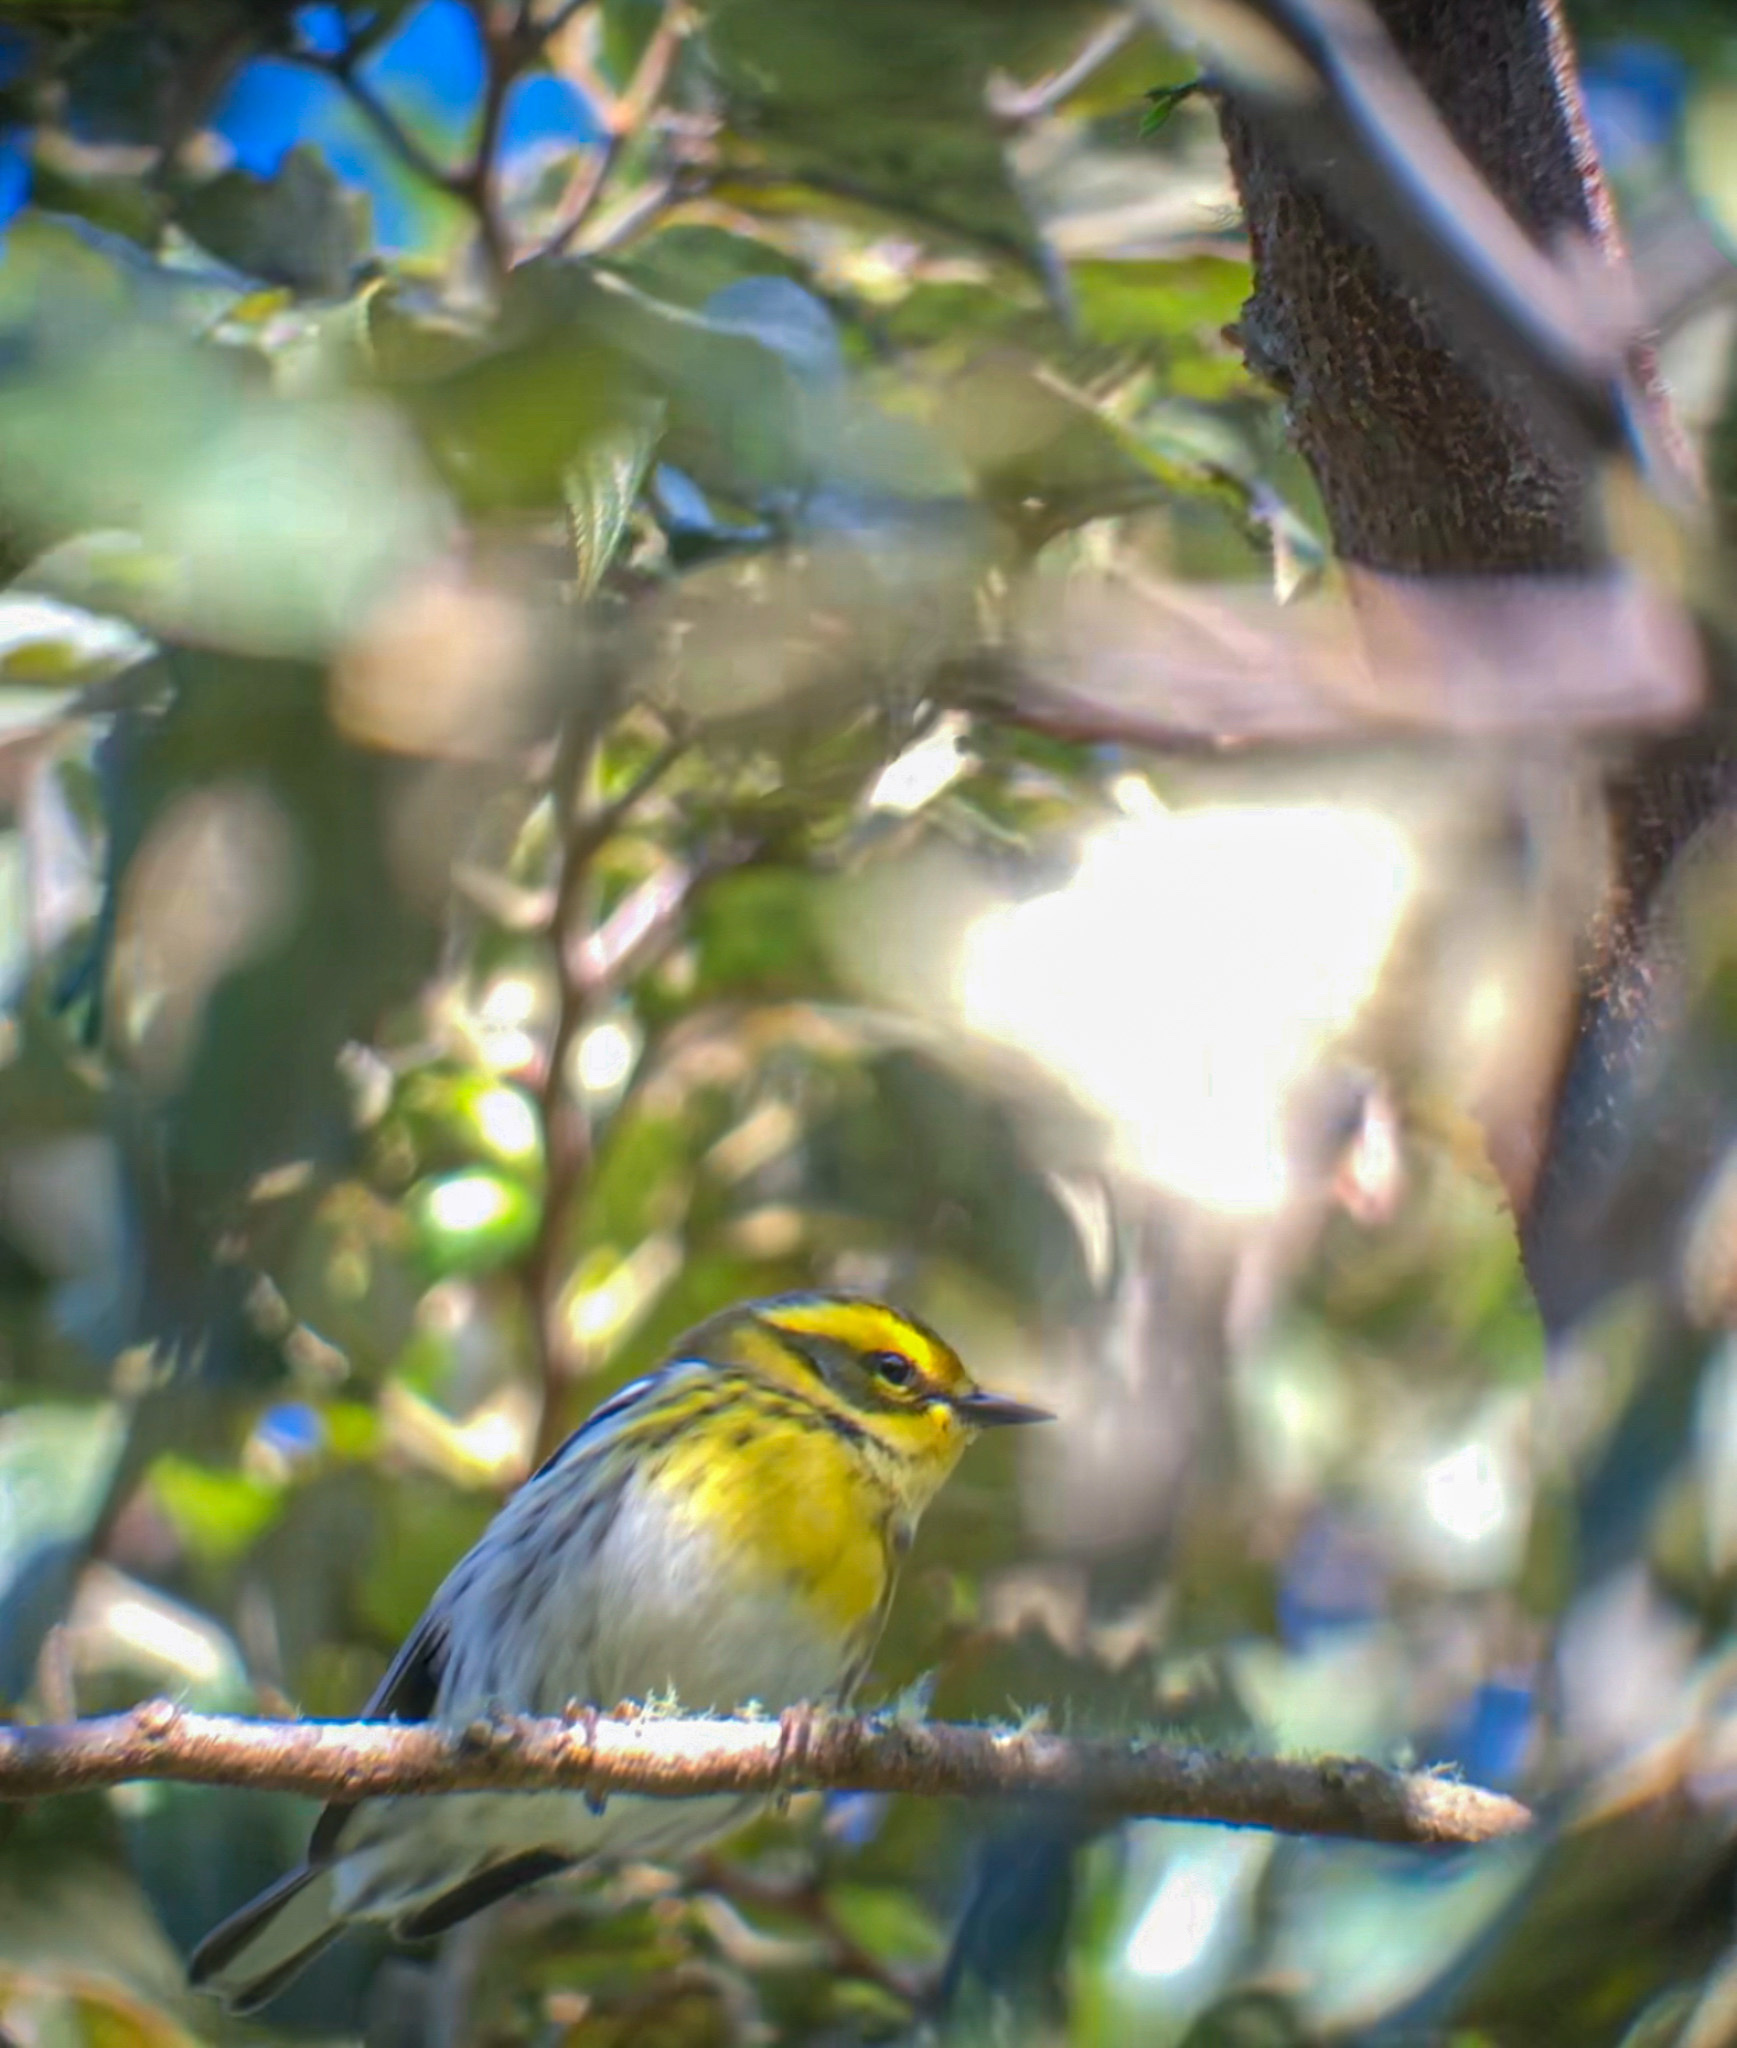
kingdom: Animalia
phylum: Chordata
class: Aves
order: Passeriformes
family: Parulidae
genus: Setophaga
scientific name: Setophaga townsendi
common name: Townsend's warbler
